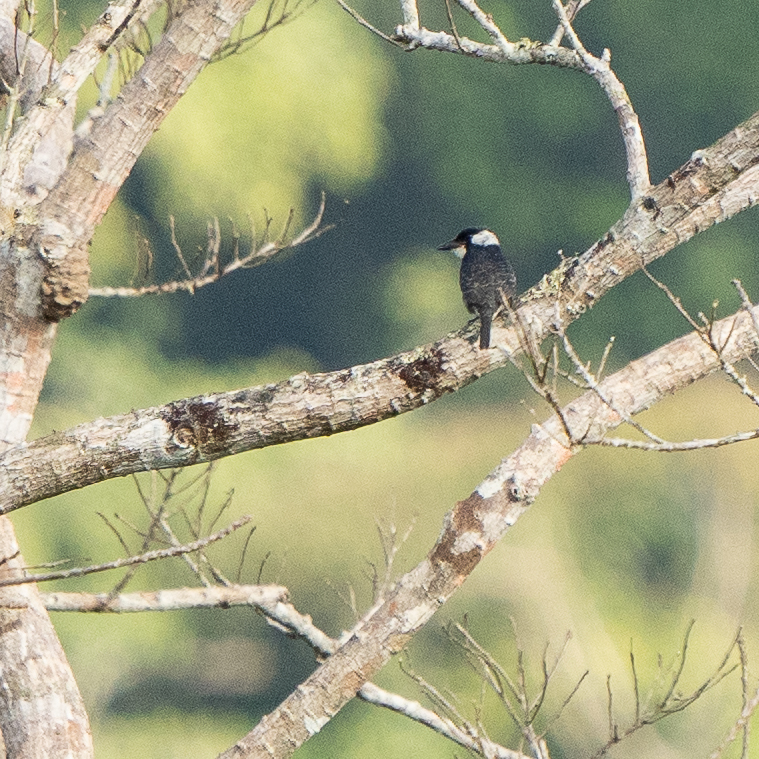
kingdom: Animalia
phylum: Chordata
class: Aves
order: Piciformes
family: Bucconidae
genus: Notharchus
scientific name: Notharchus pectoralis
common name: Black-breasted puffbird
